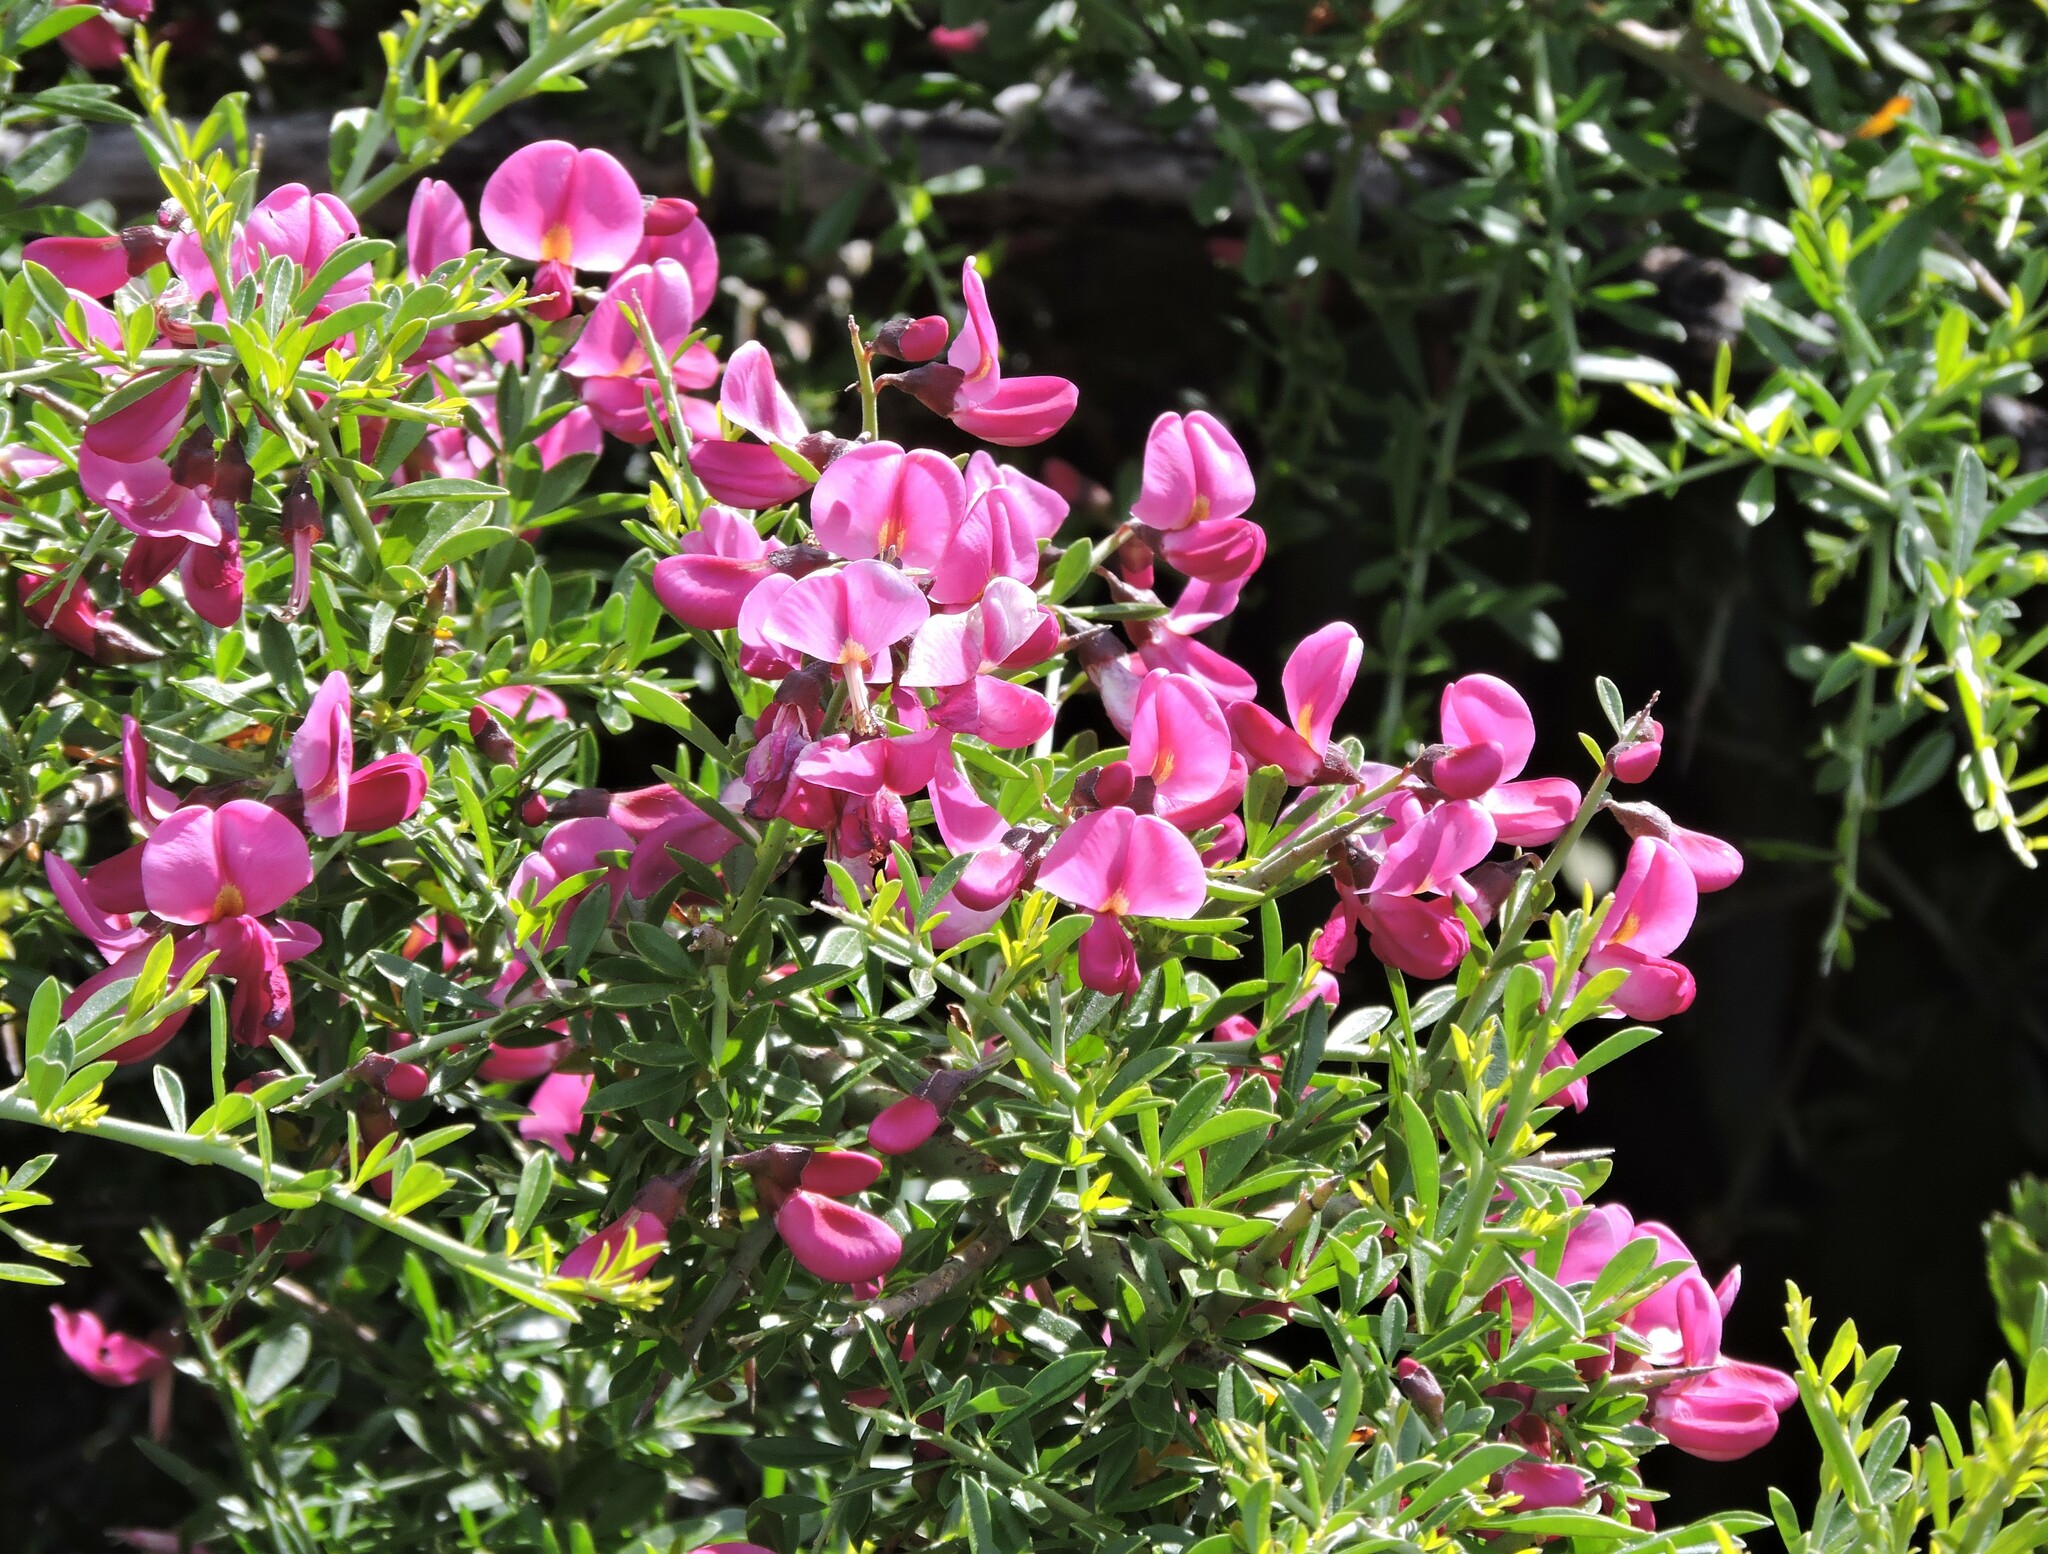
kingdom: Plantae
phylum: Tracheophyta
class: Magnoliopsida
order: Fabales
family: Fabaceae
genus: Pickeringia
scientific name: Pickeringia montana
